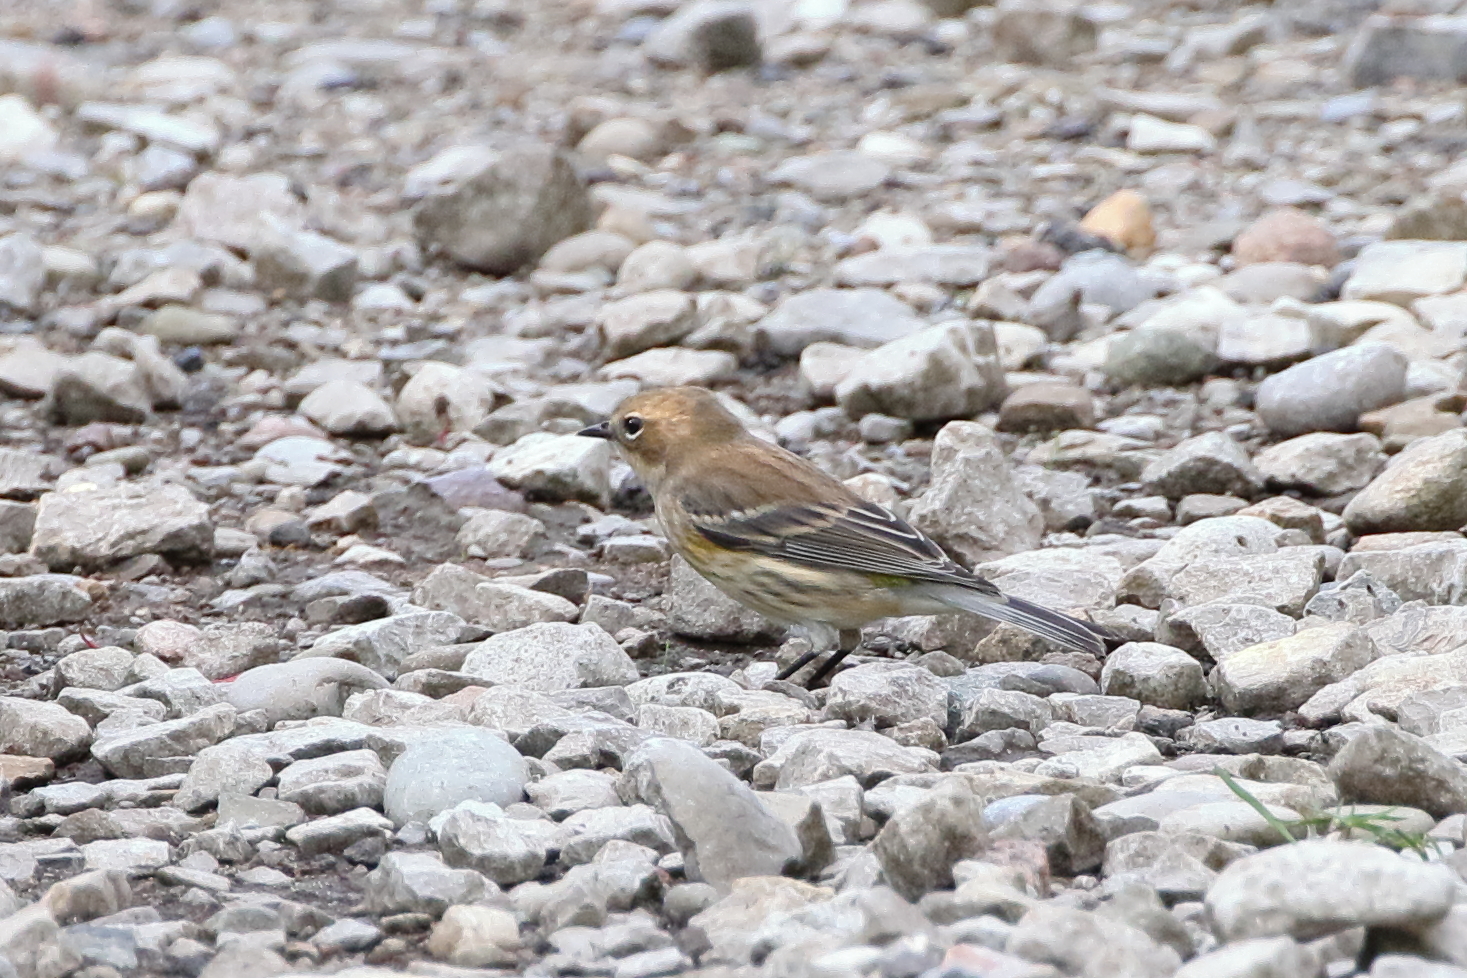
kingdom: Animalia
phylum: Chordata
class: Aves
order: Passeriformes
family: Parulidae
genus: Setophaga
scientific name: Setophaga coronata
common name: Myrtle warbler
